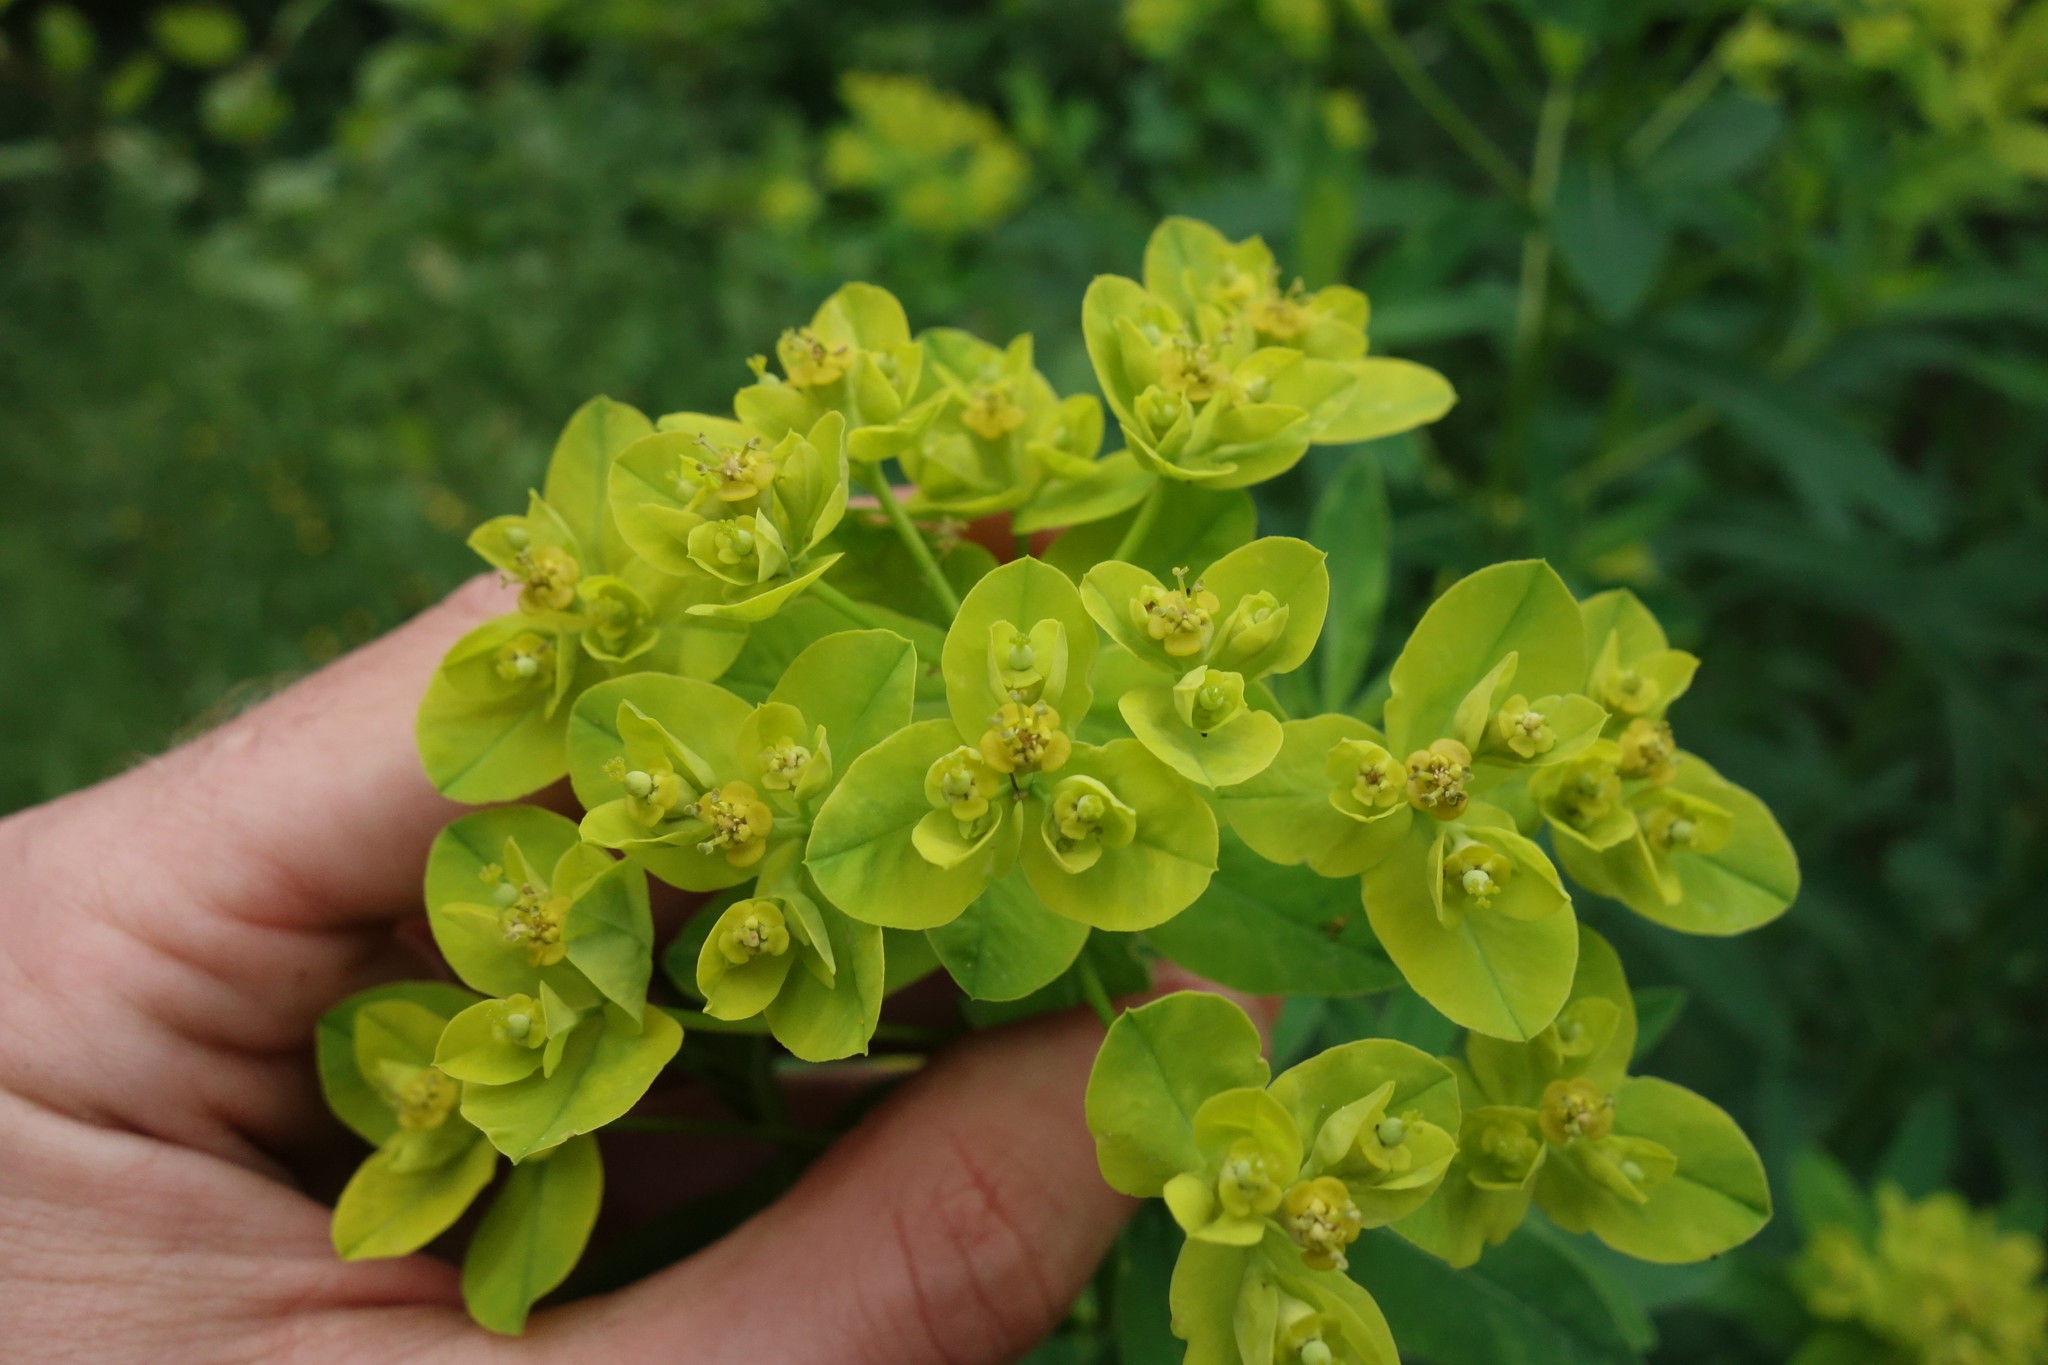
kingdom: Plantae
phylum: Tracheophyta
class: Magnoliopsida
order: Malpighiales
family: Euphorbiaceae
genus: Euphorbia
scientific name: Euphorbia semivillosa
